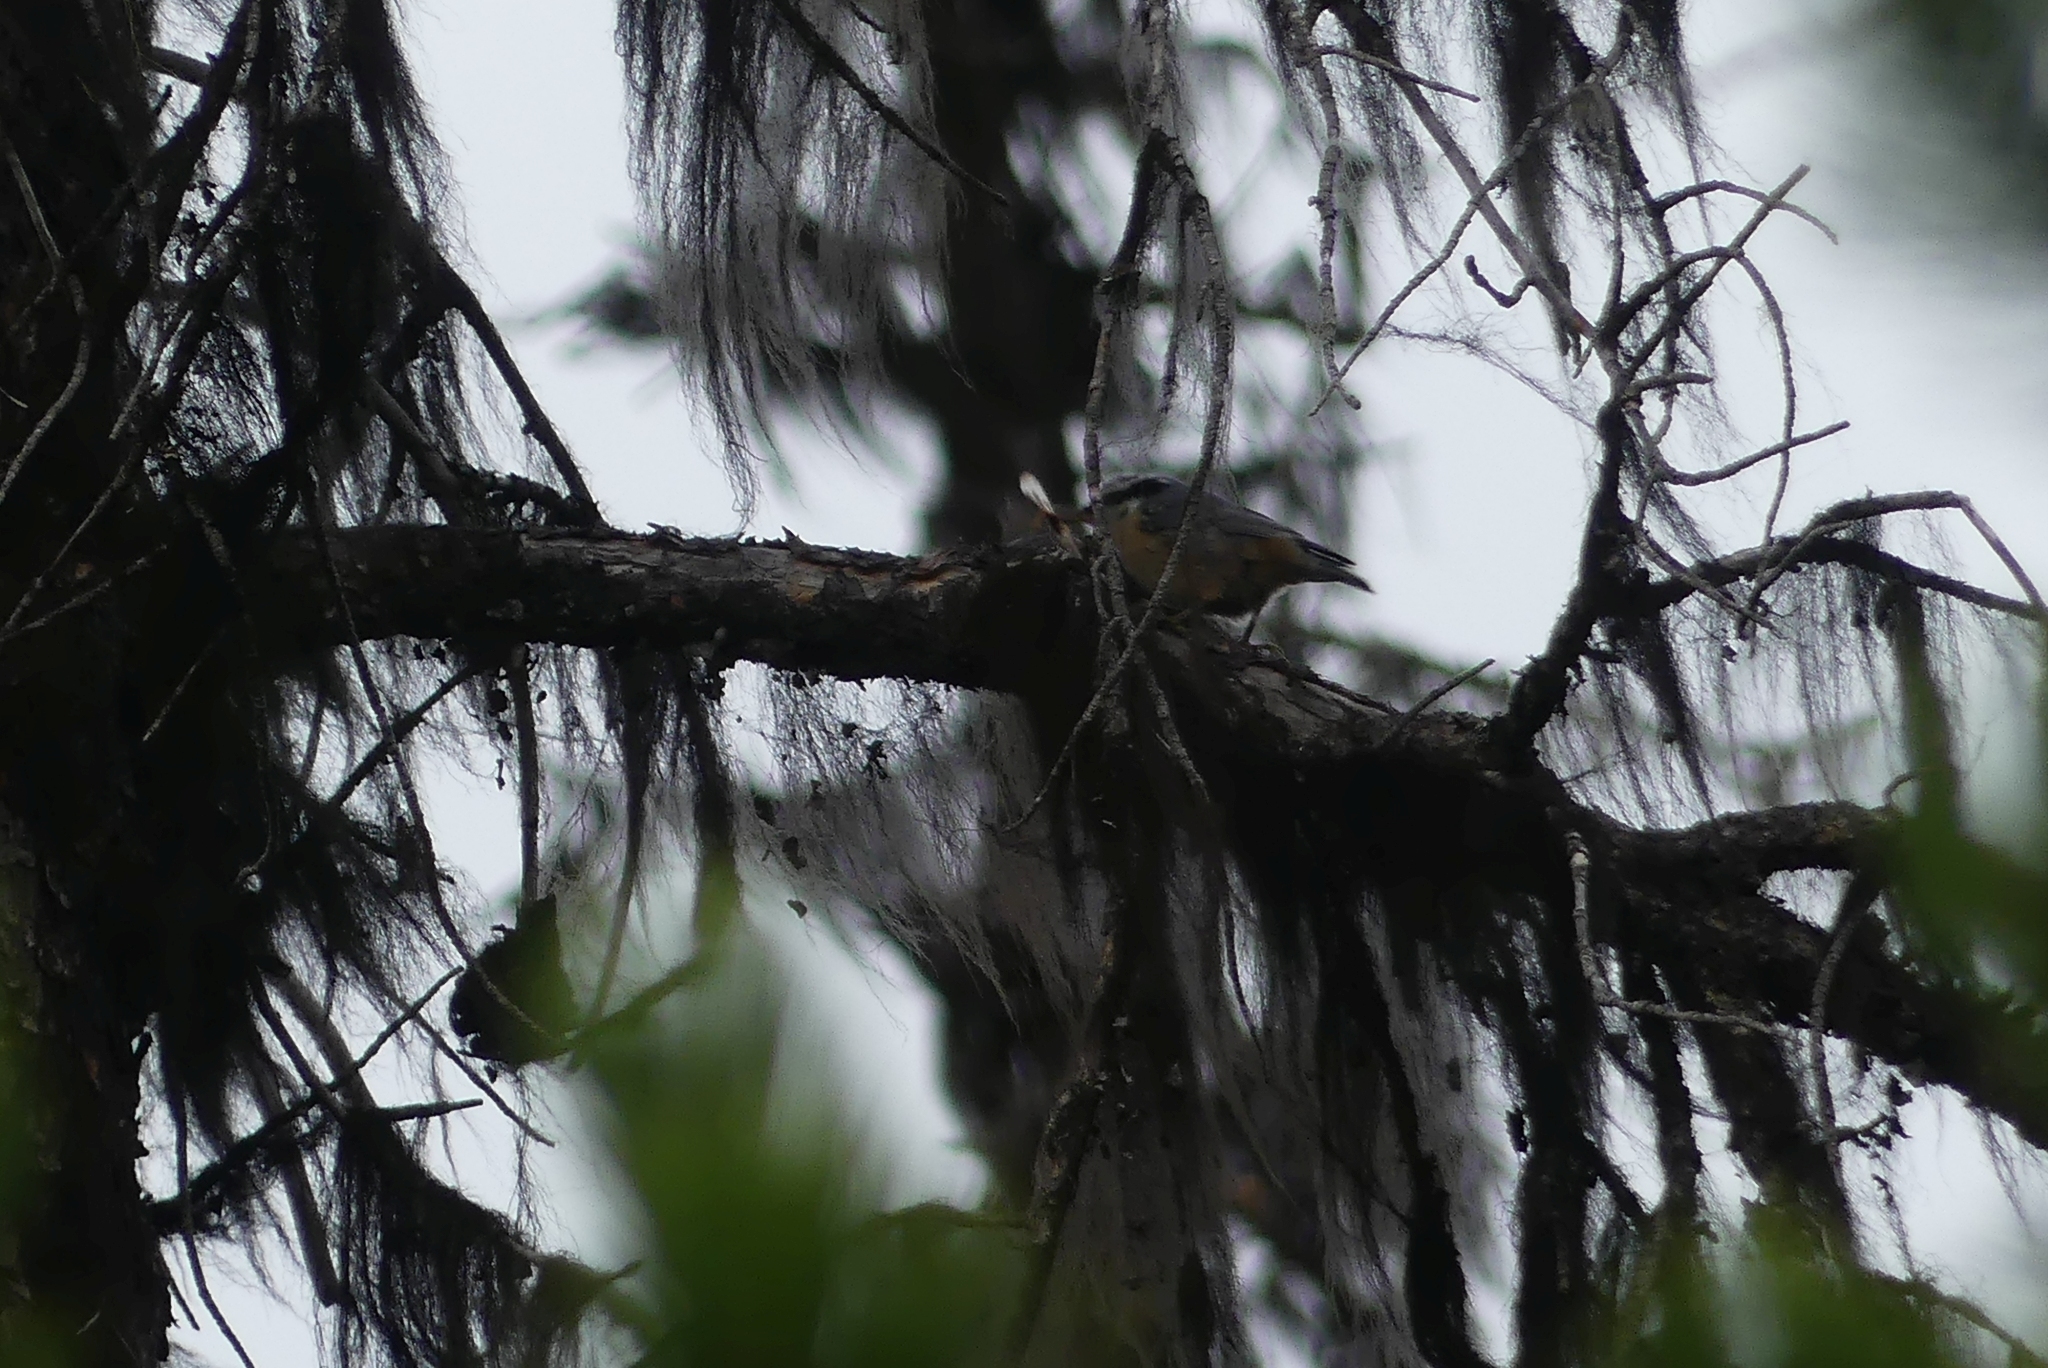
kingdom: Animalia
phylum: Chordata
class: Aves
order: Passeriformes
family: Sittidae
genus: Sitta
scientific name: Sitta canadensis
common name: Red-breasted nuthatch
